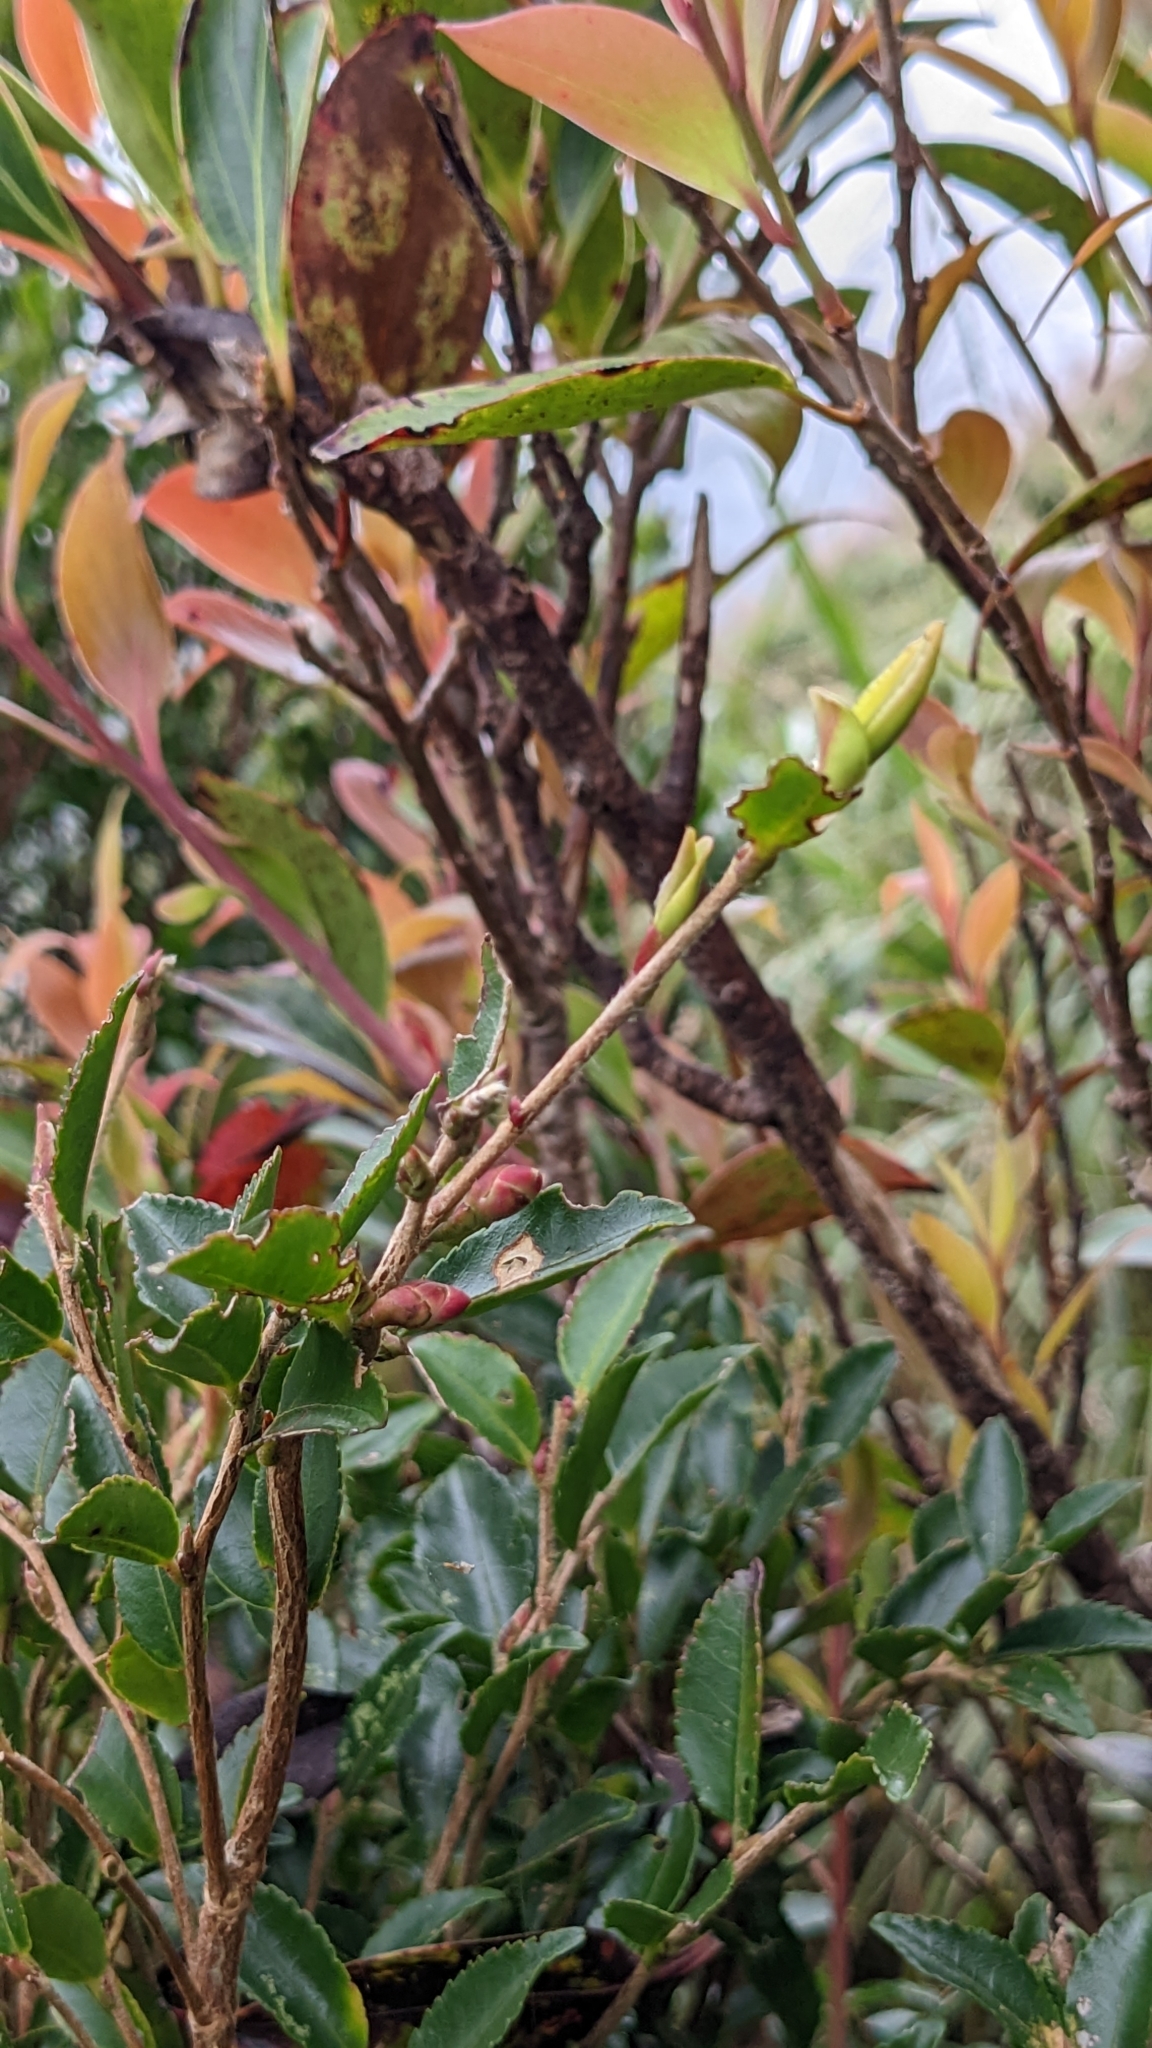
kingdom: Plantae
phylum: Tracheophyta
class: Magnoliopsida
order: Ericales
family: Theaceae
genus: Camellia
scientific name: Camellia trichoclada
